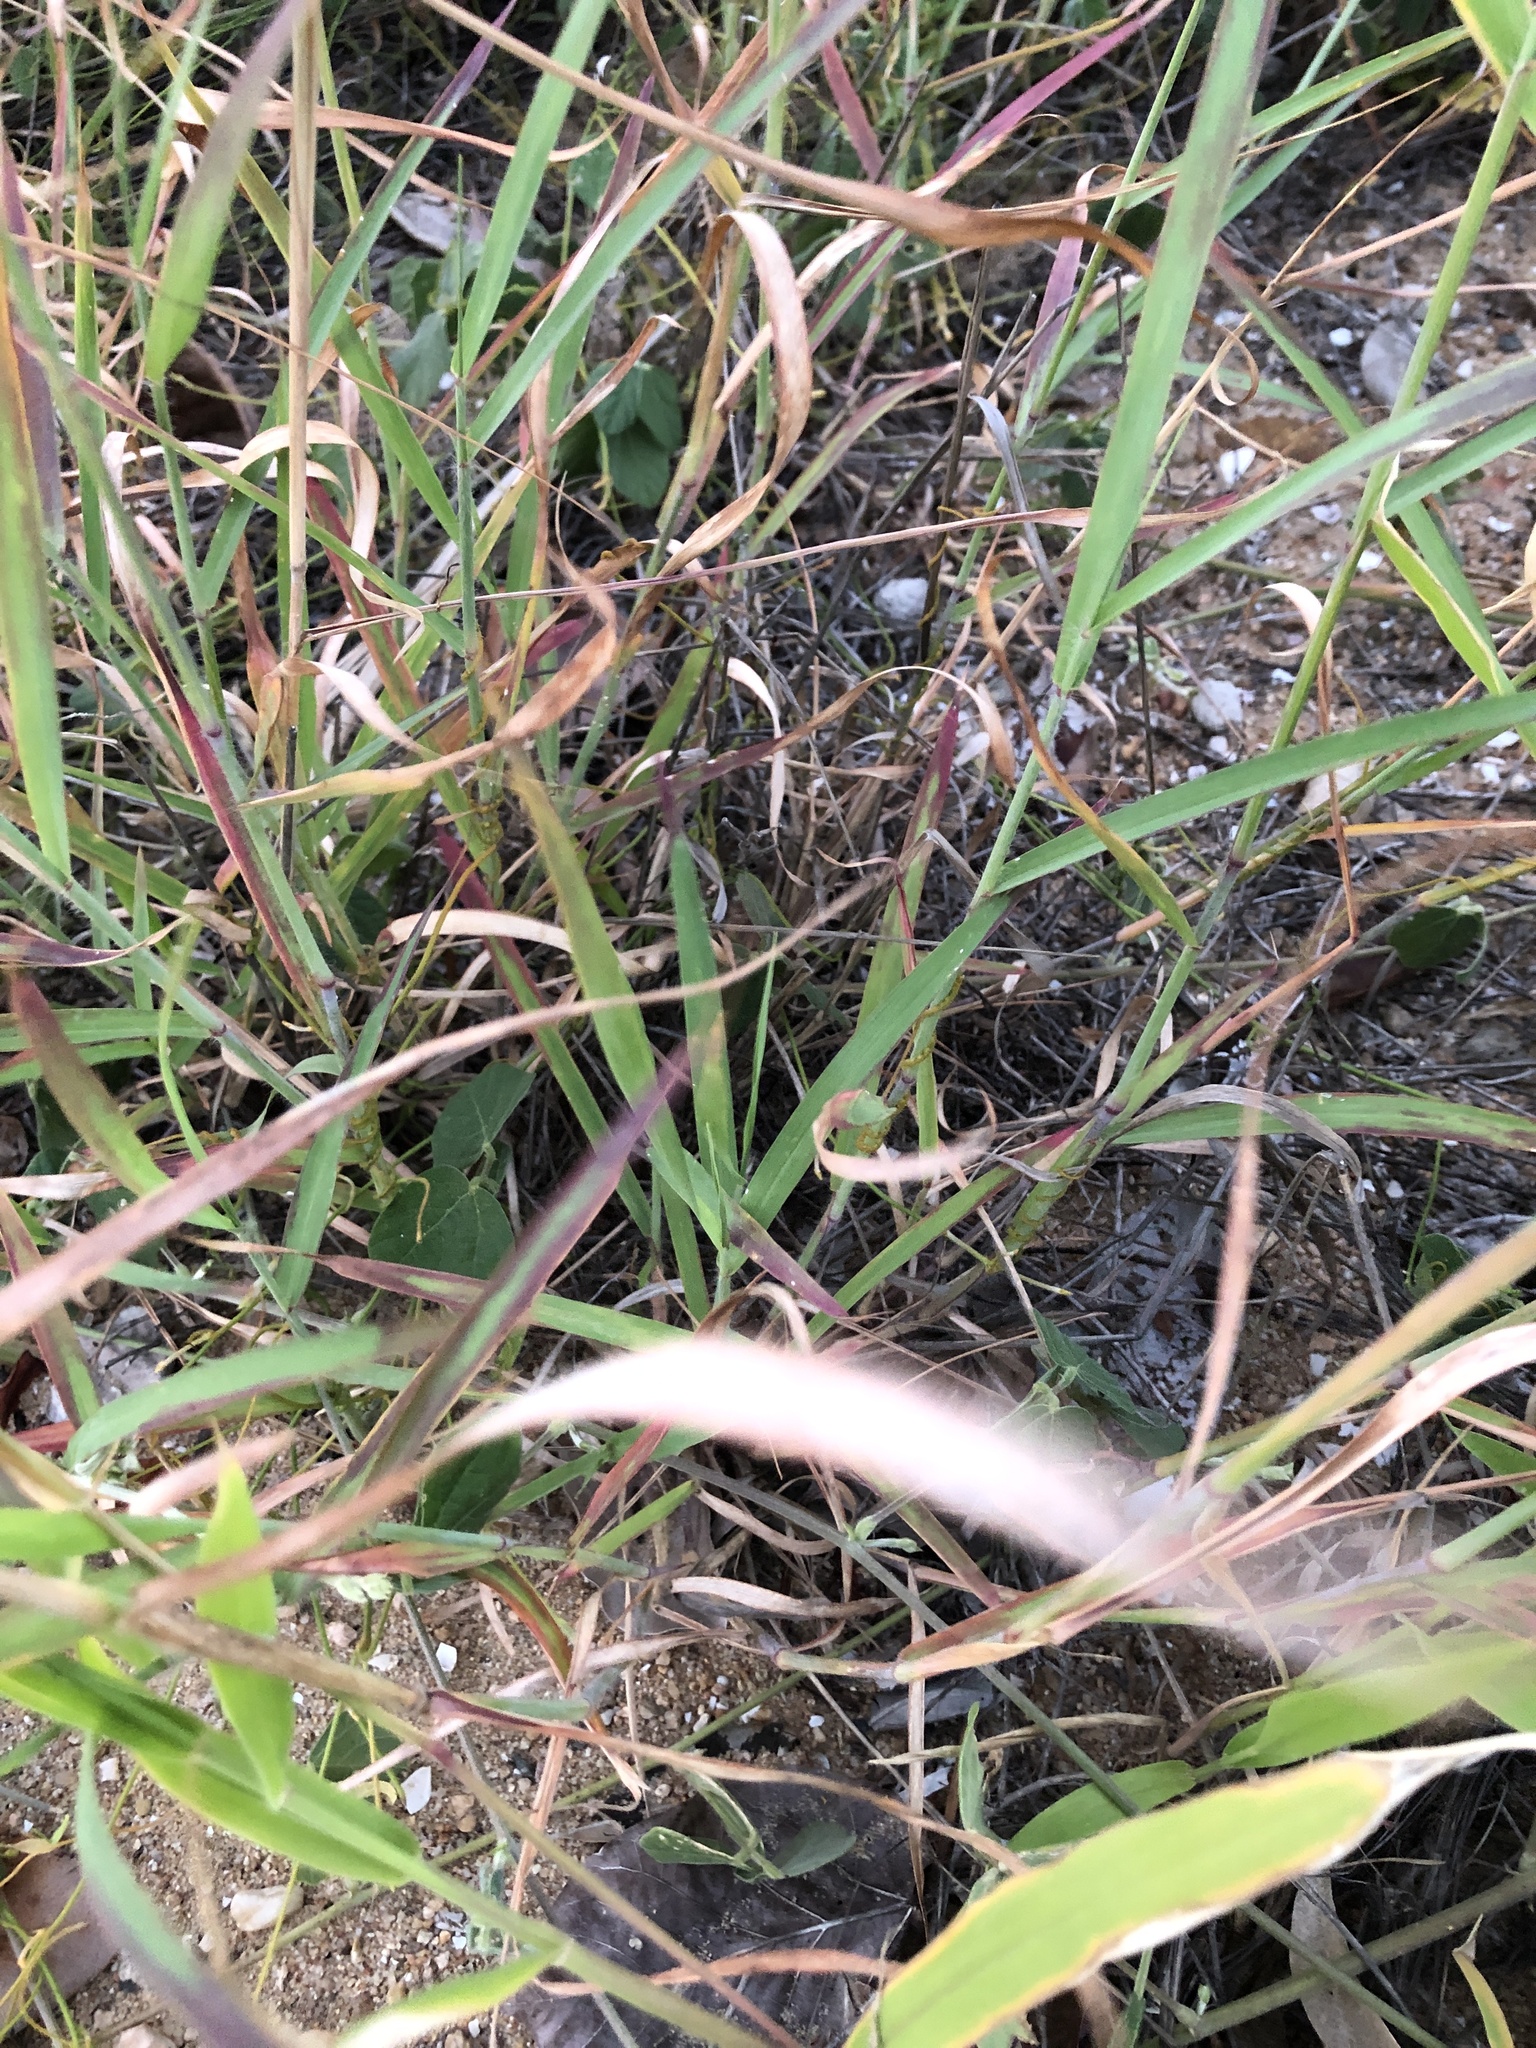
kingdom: Plantae
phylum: Tracheophyta
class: Liliopsida
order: Poales
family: Poaceae
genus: Melinis
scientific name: Melinis repens
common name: Rose natal grass
